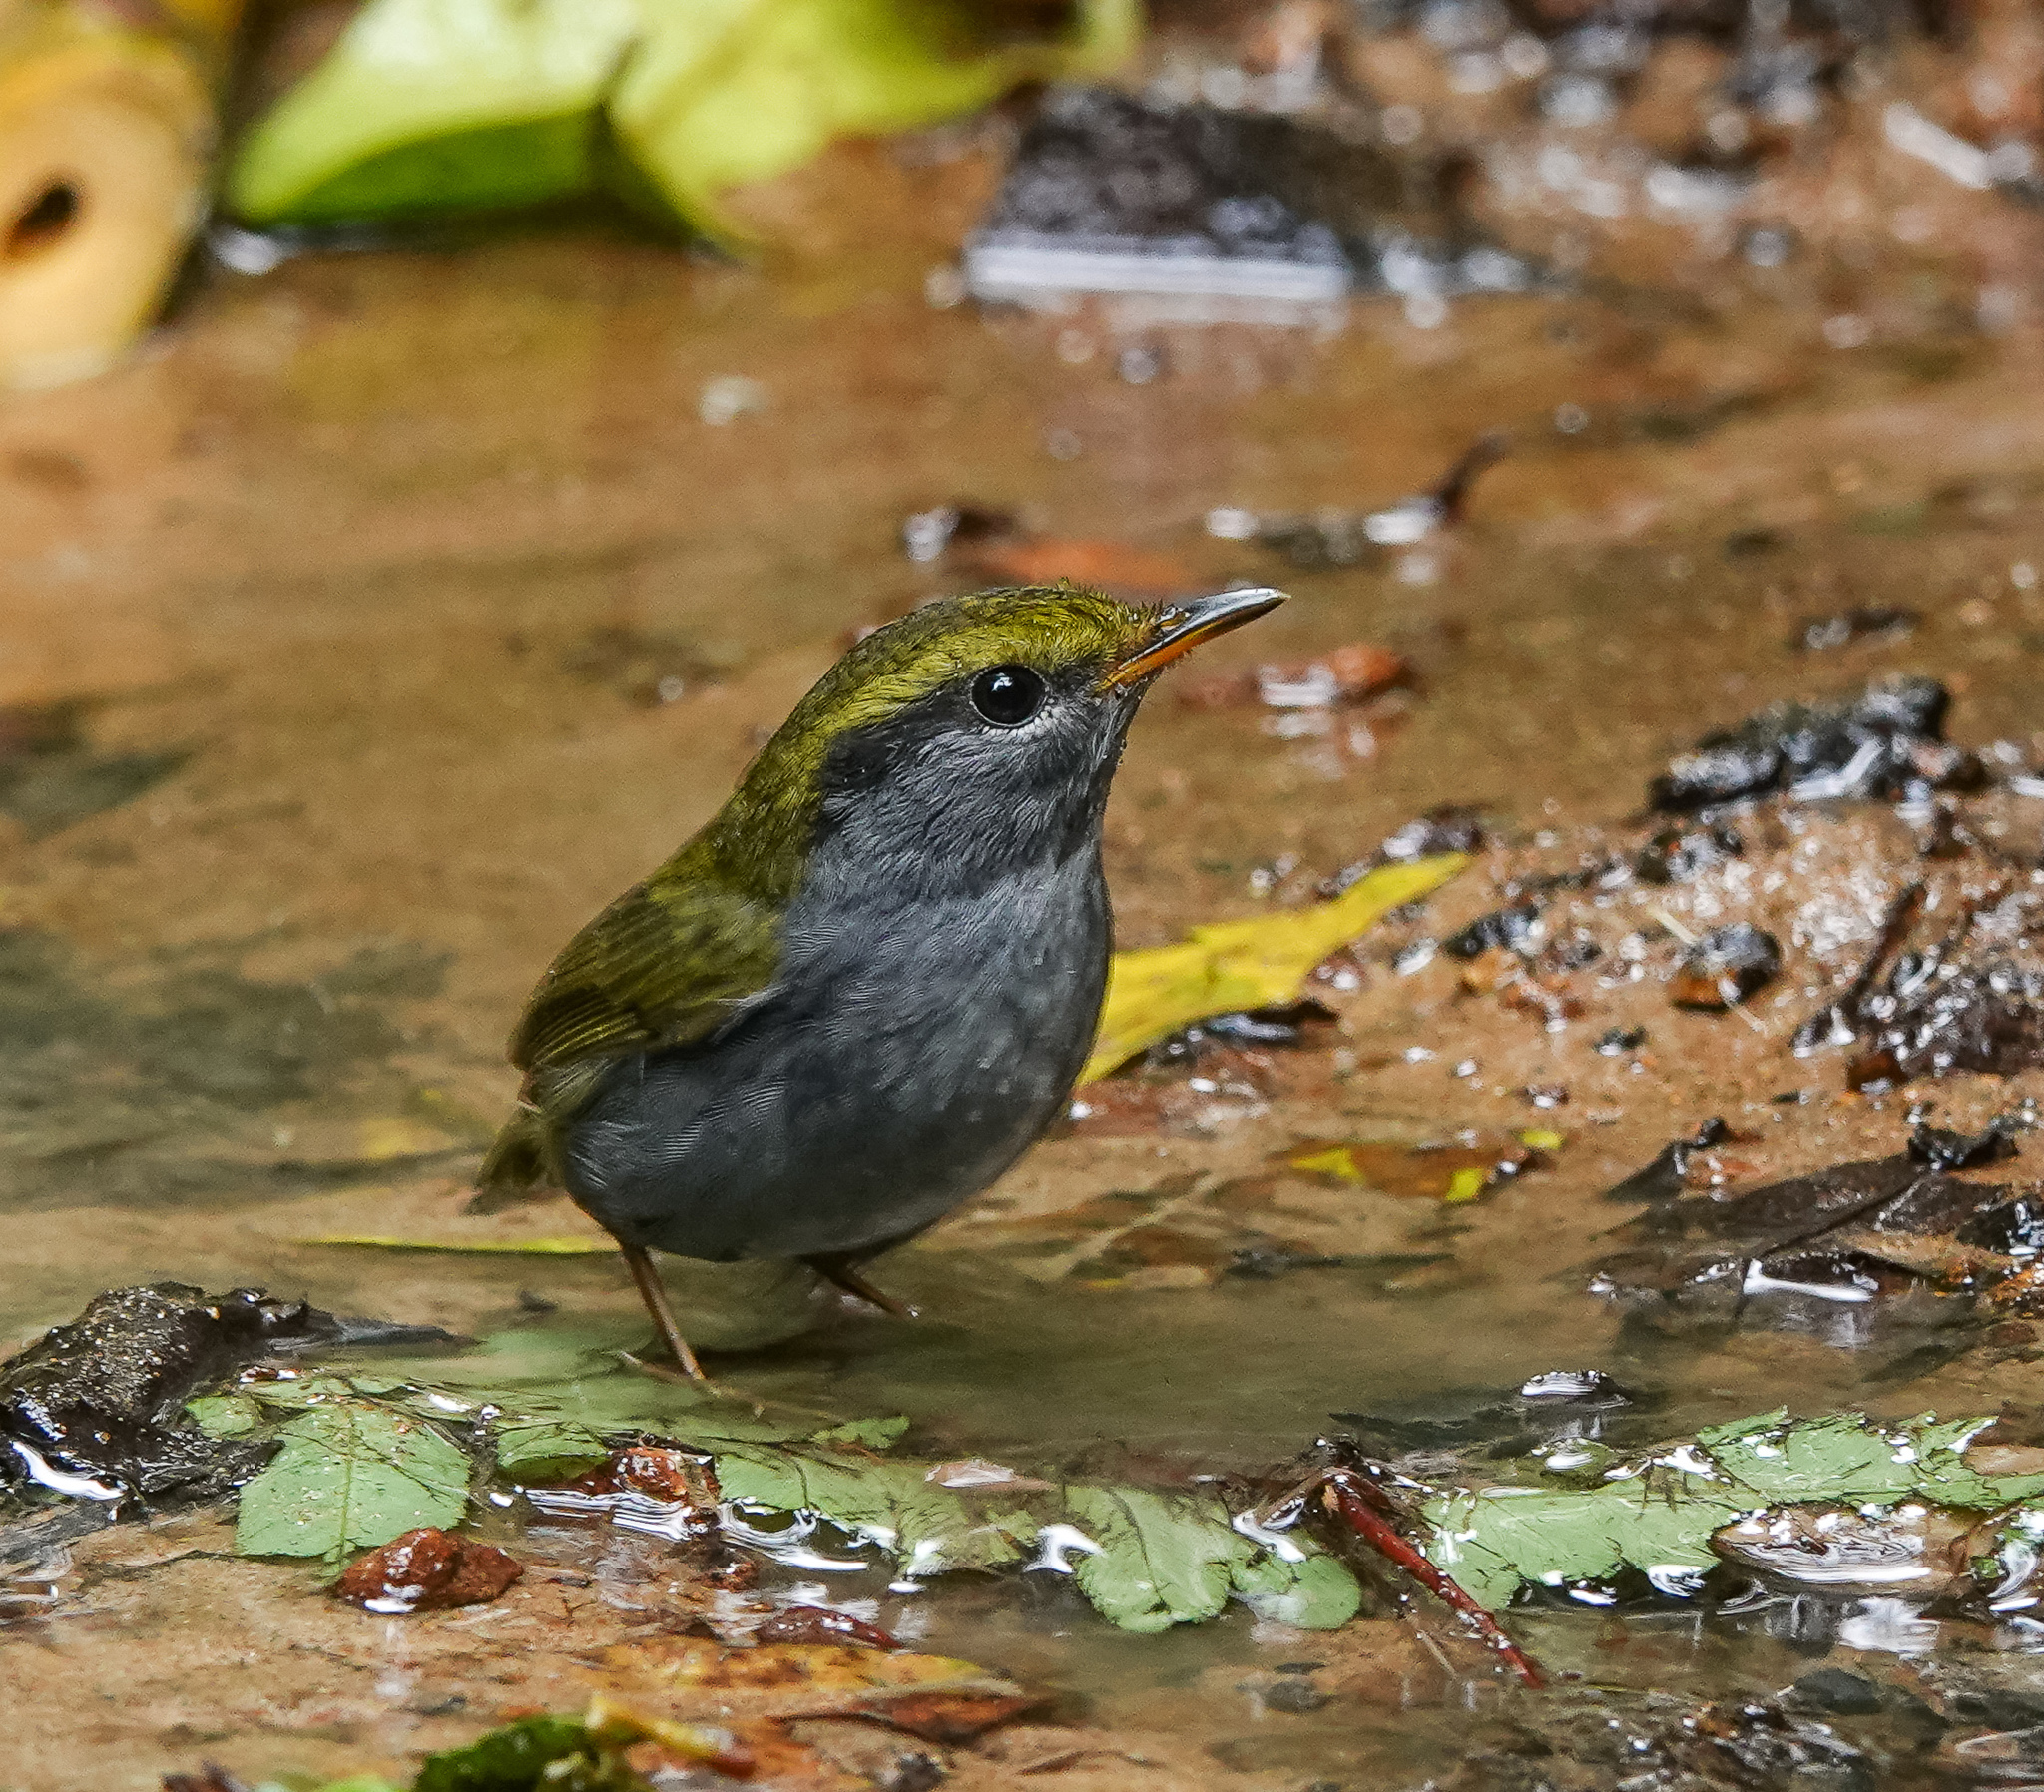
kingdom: Animalia
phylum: Chordata
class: Aves
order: Passeriformes
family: Cettiidae
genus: Tesia
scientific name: Tesia cyaniventer
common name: Grey-bellied tesia
